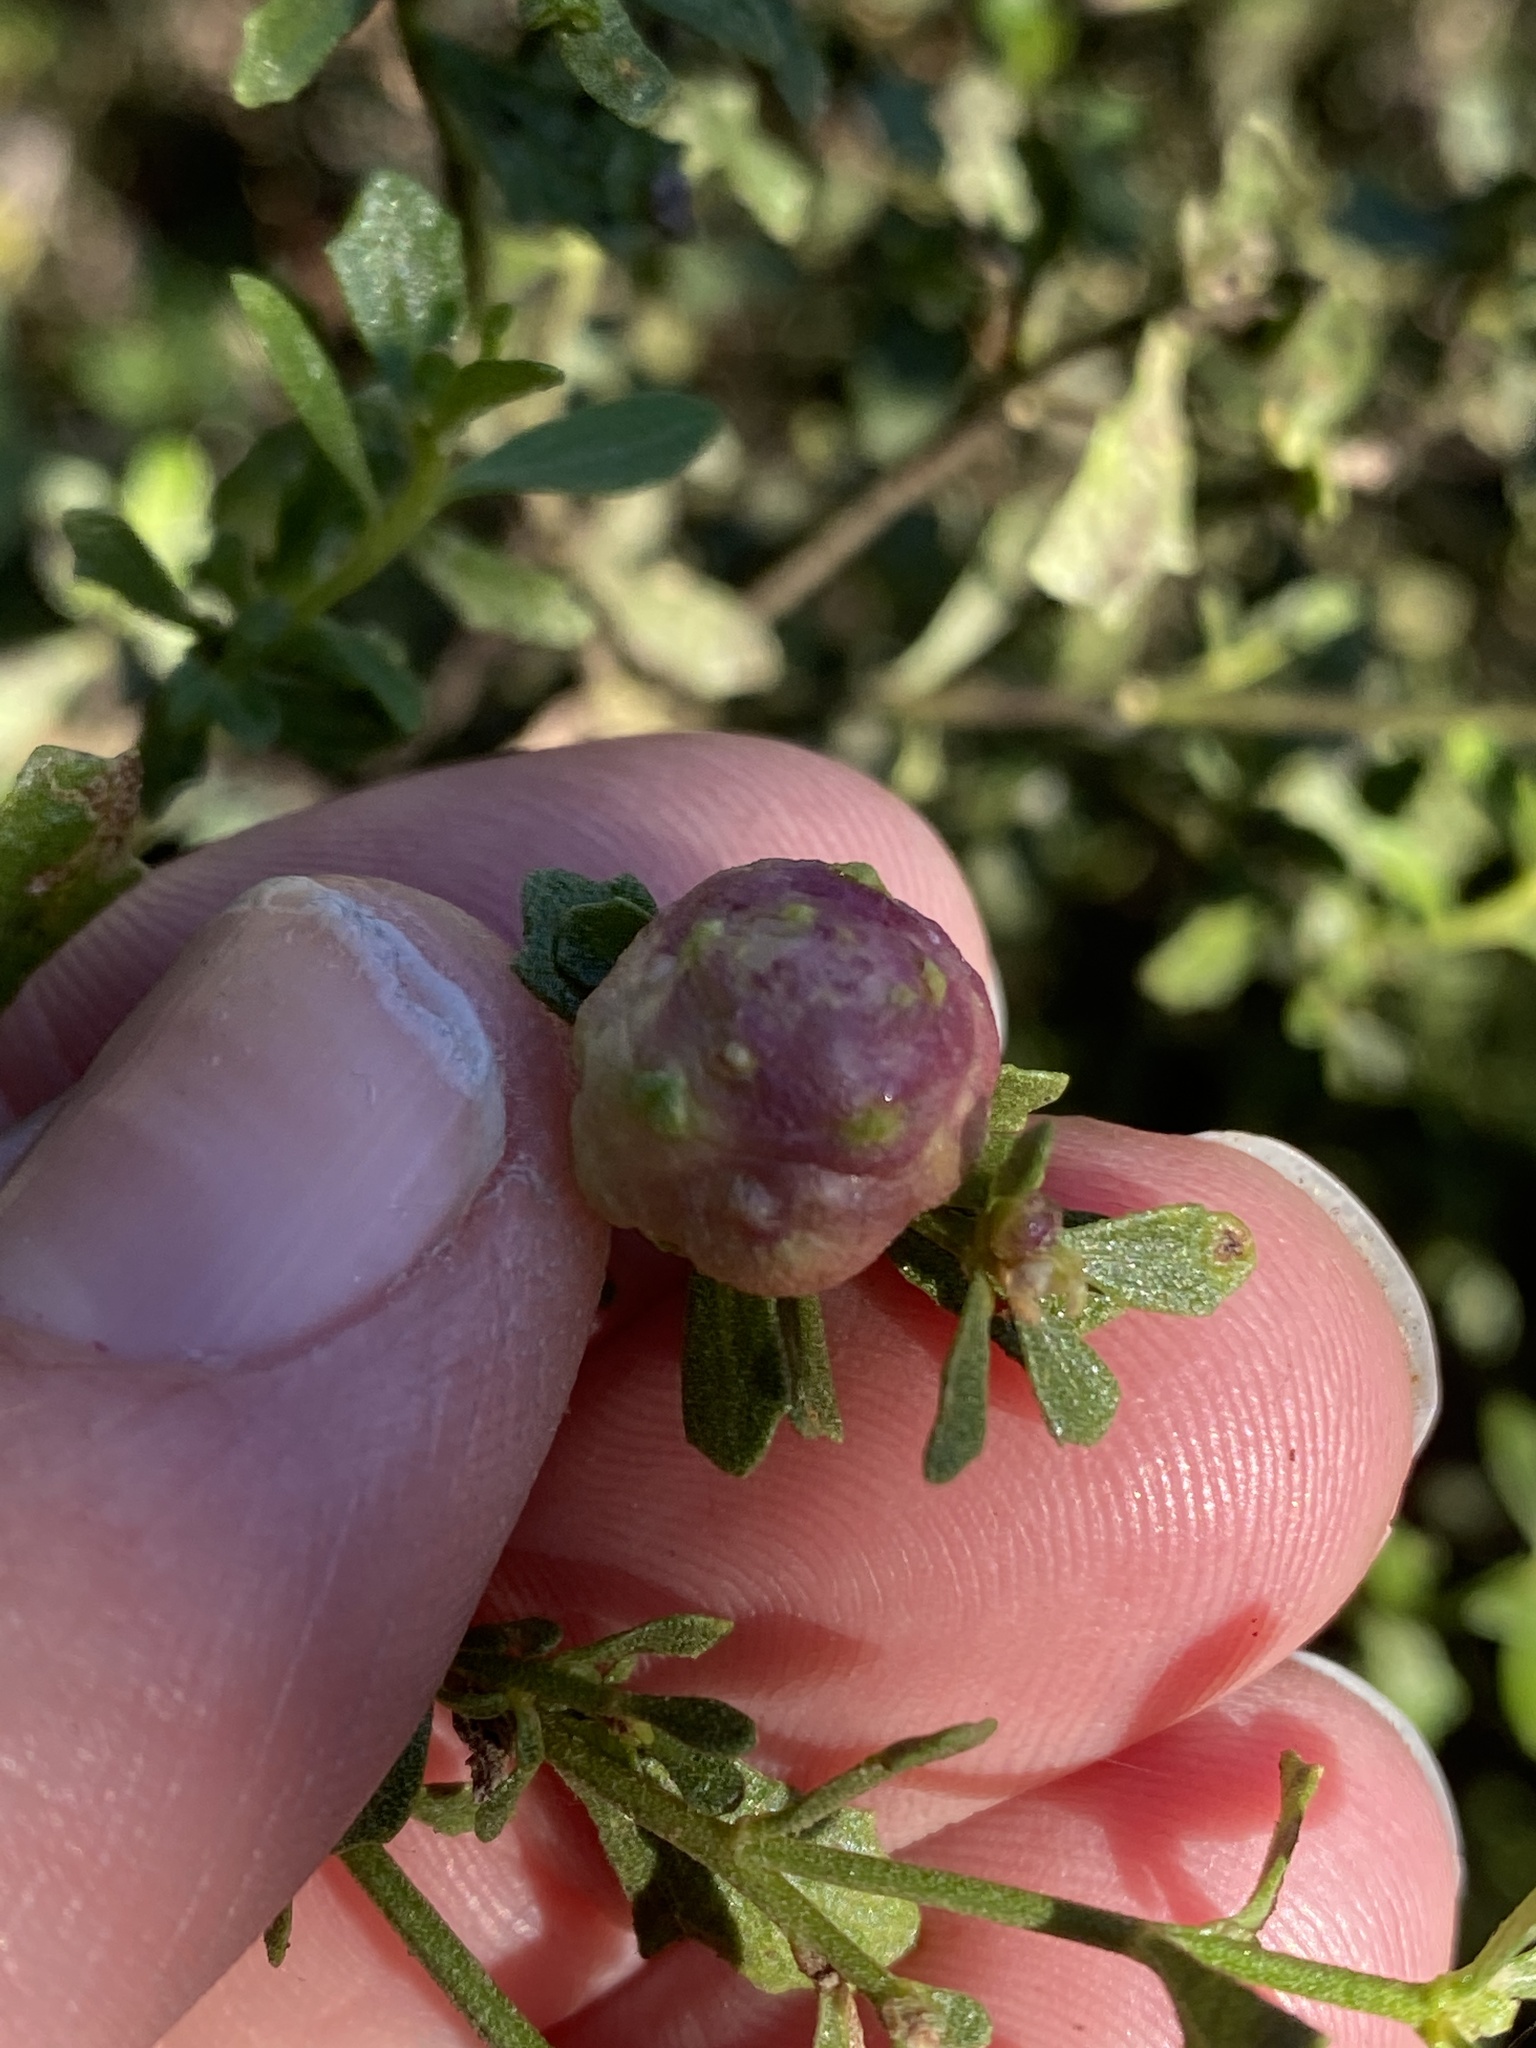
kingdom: Animalia
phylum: Arthropoda
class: Insecta
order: Diptera
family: Cecidomyiidae
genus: Rhopalomyia
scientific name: Rhopalomyia californica
